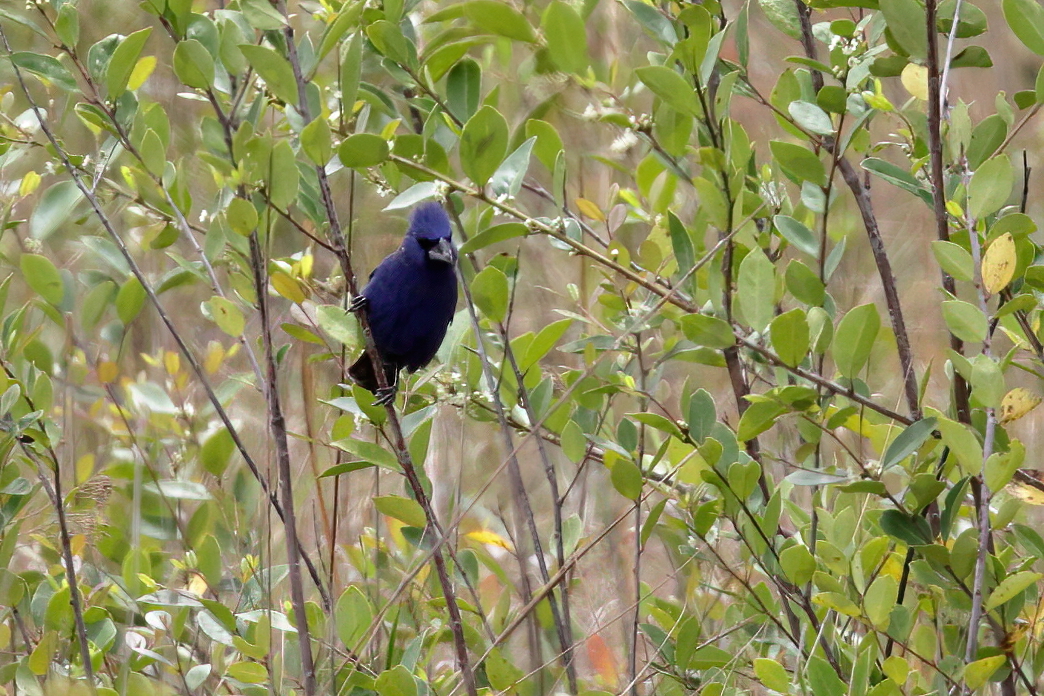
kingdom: Animalia
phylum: Chordata
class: Aves
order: Passeriformes
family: Cardinalidae
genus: Passerina
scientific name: Passerina caerulea
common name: Blue grosbeak
